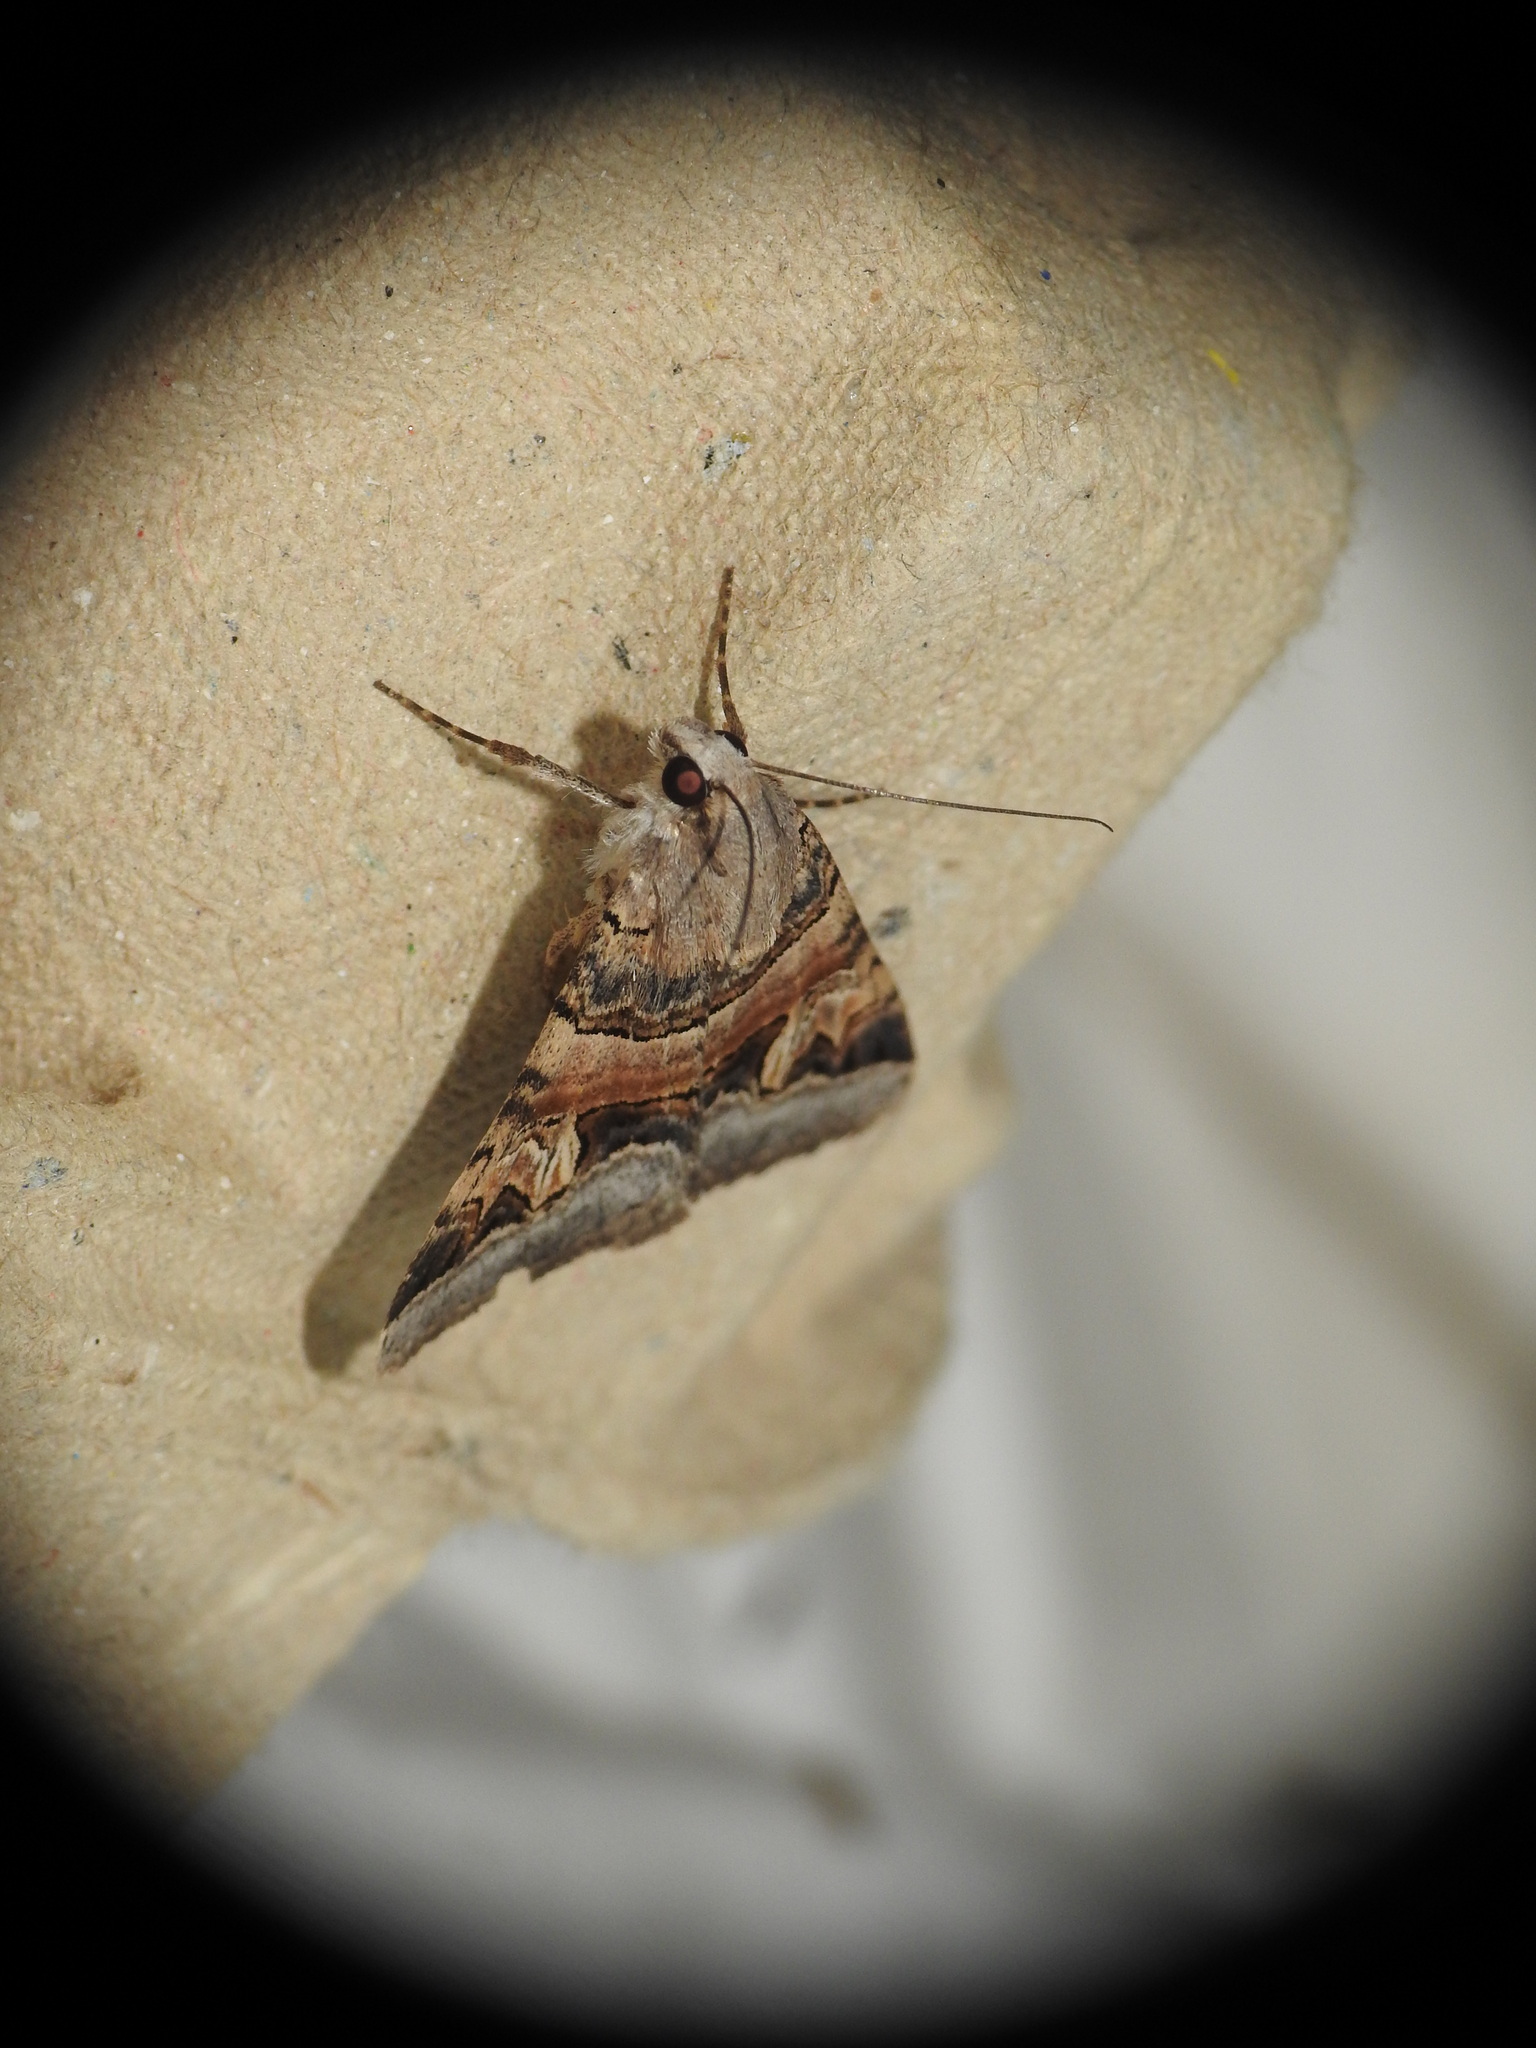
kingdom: Animalia
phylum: Arthropoda
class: Insecta
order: Lepidoptera
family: Erebidae
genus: Drasteria
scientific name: Drasteria cailino
